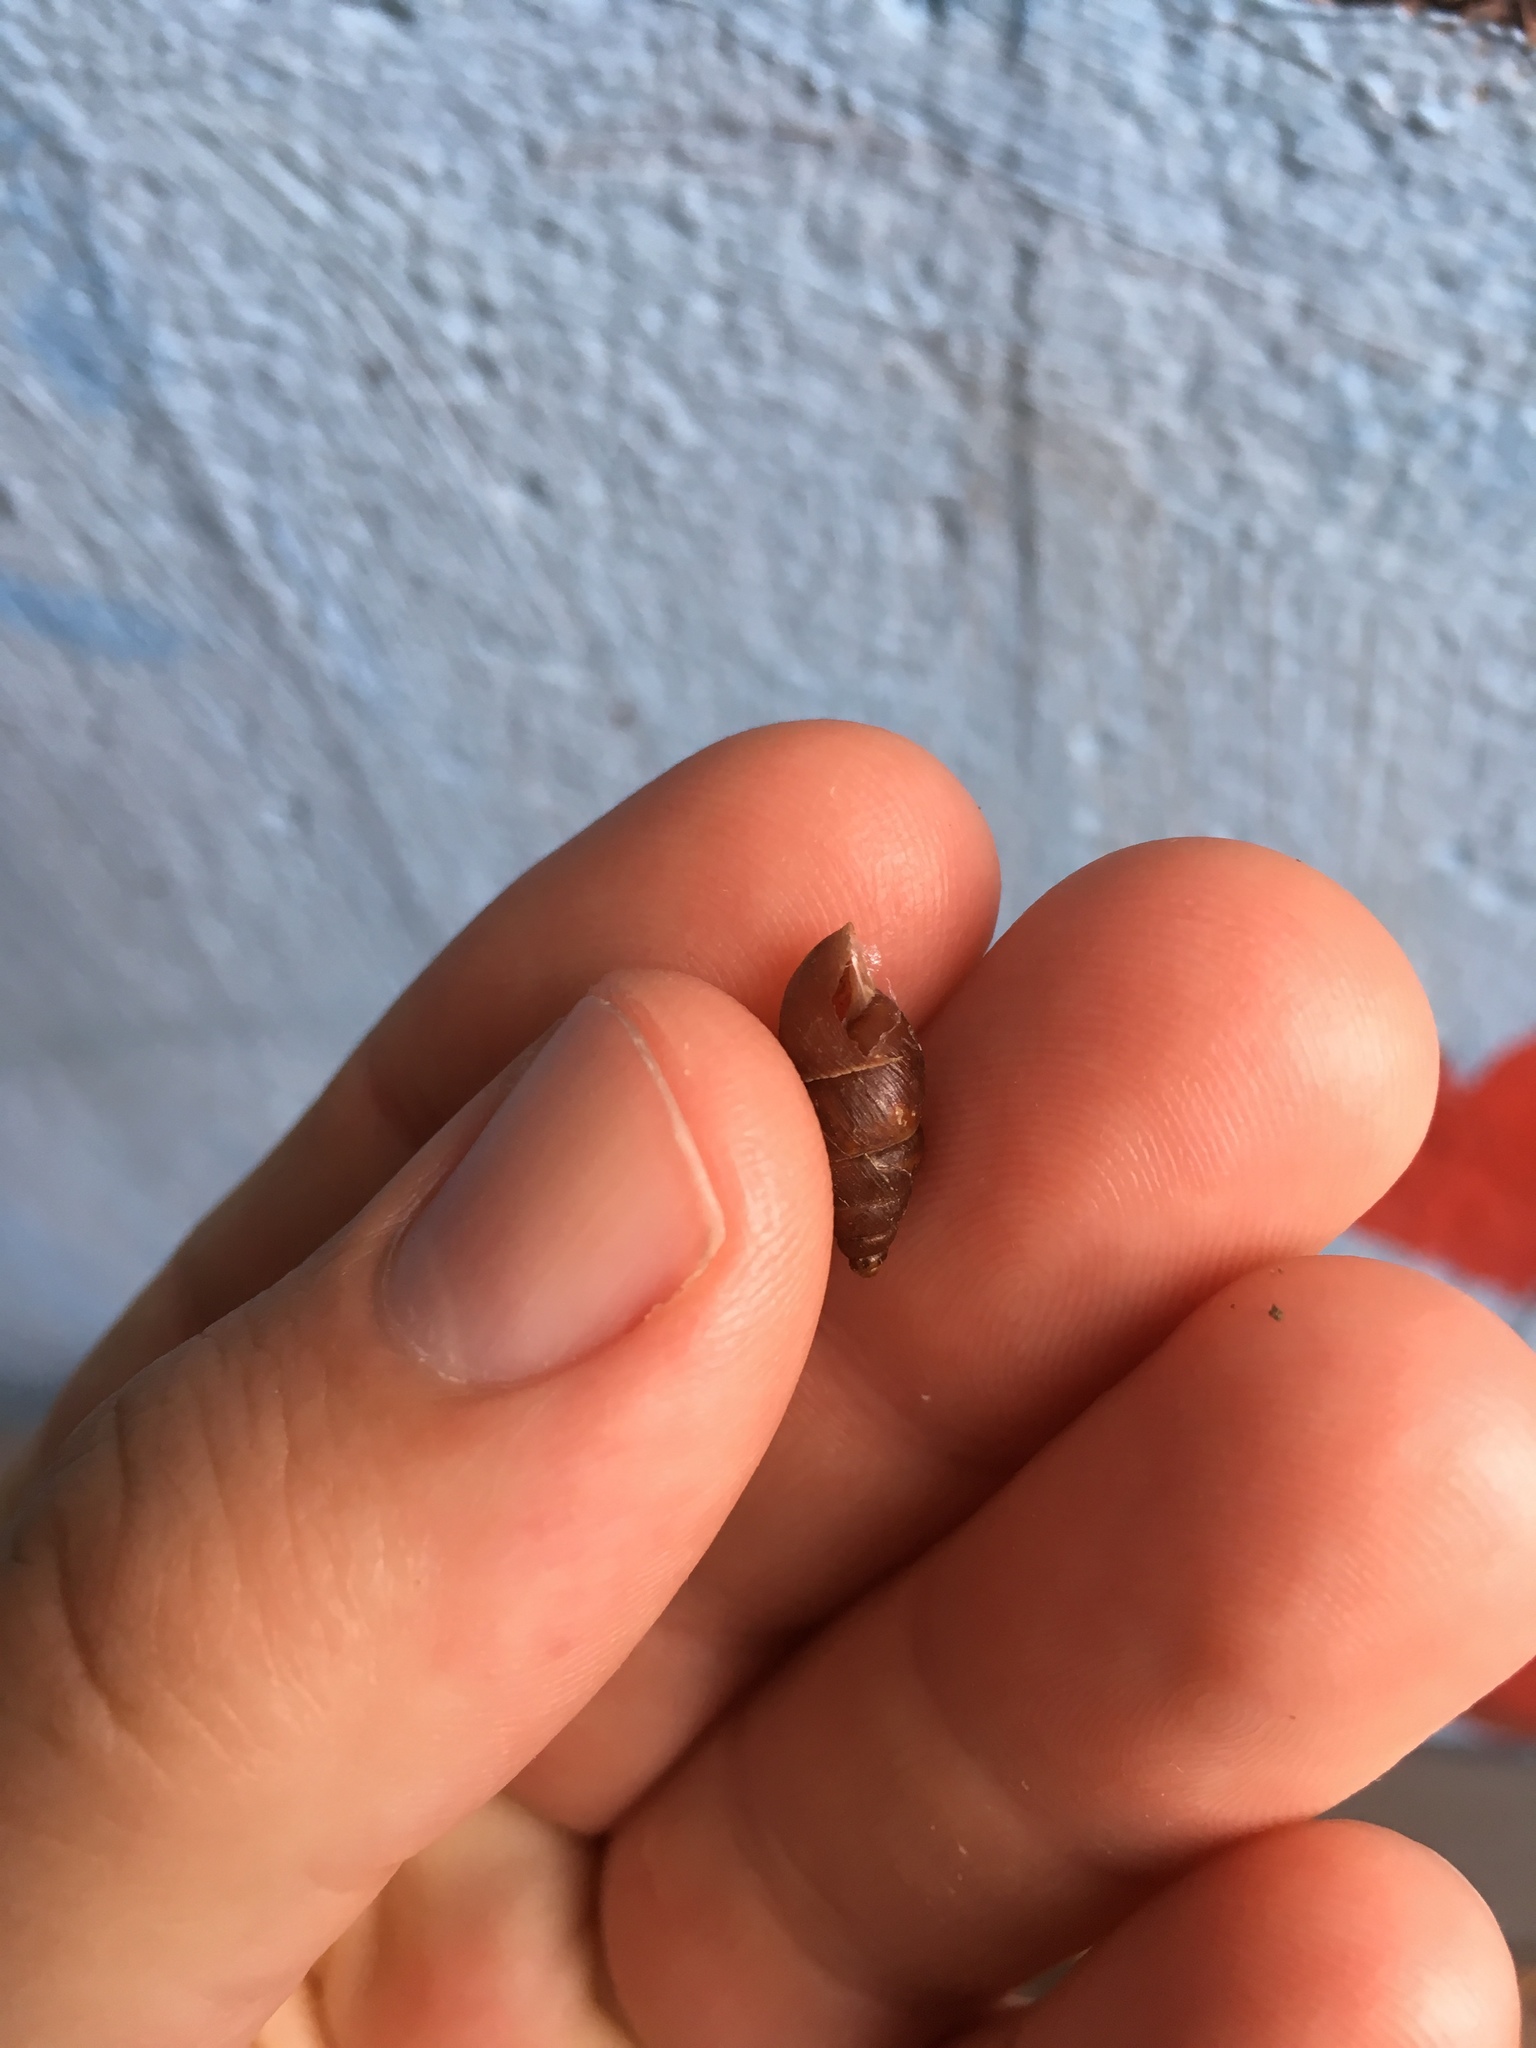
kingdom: Animalia
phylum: Mollusca
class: Gastropoda
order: Stylommatophora
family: Enidae
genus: Ena
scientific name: Ena montana
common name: Mountain bulin
